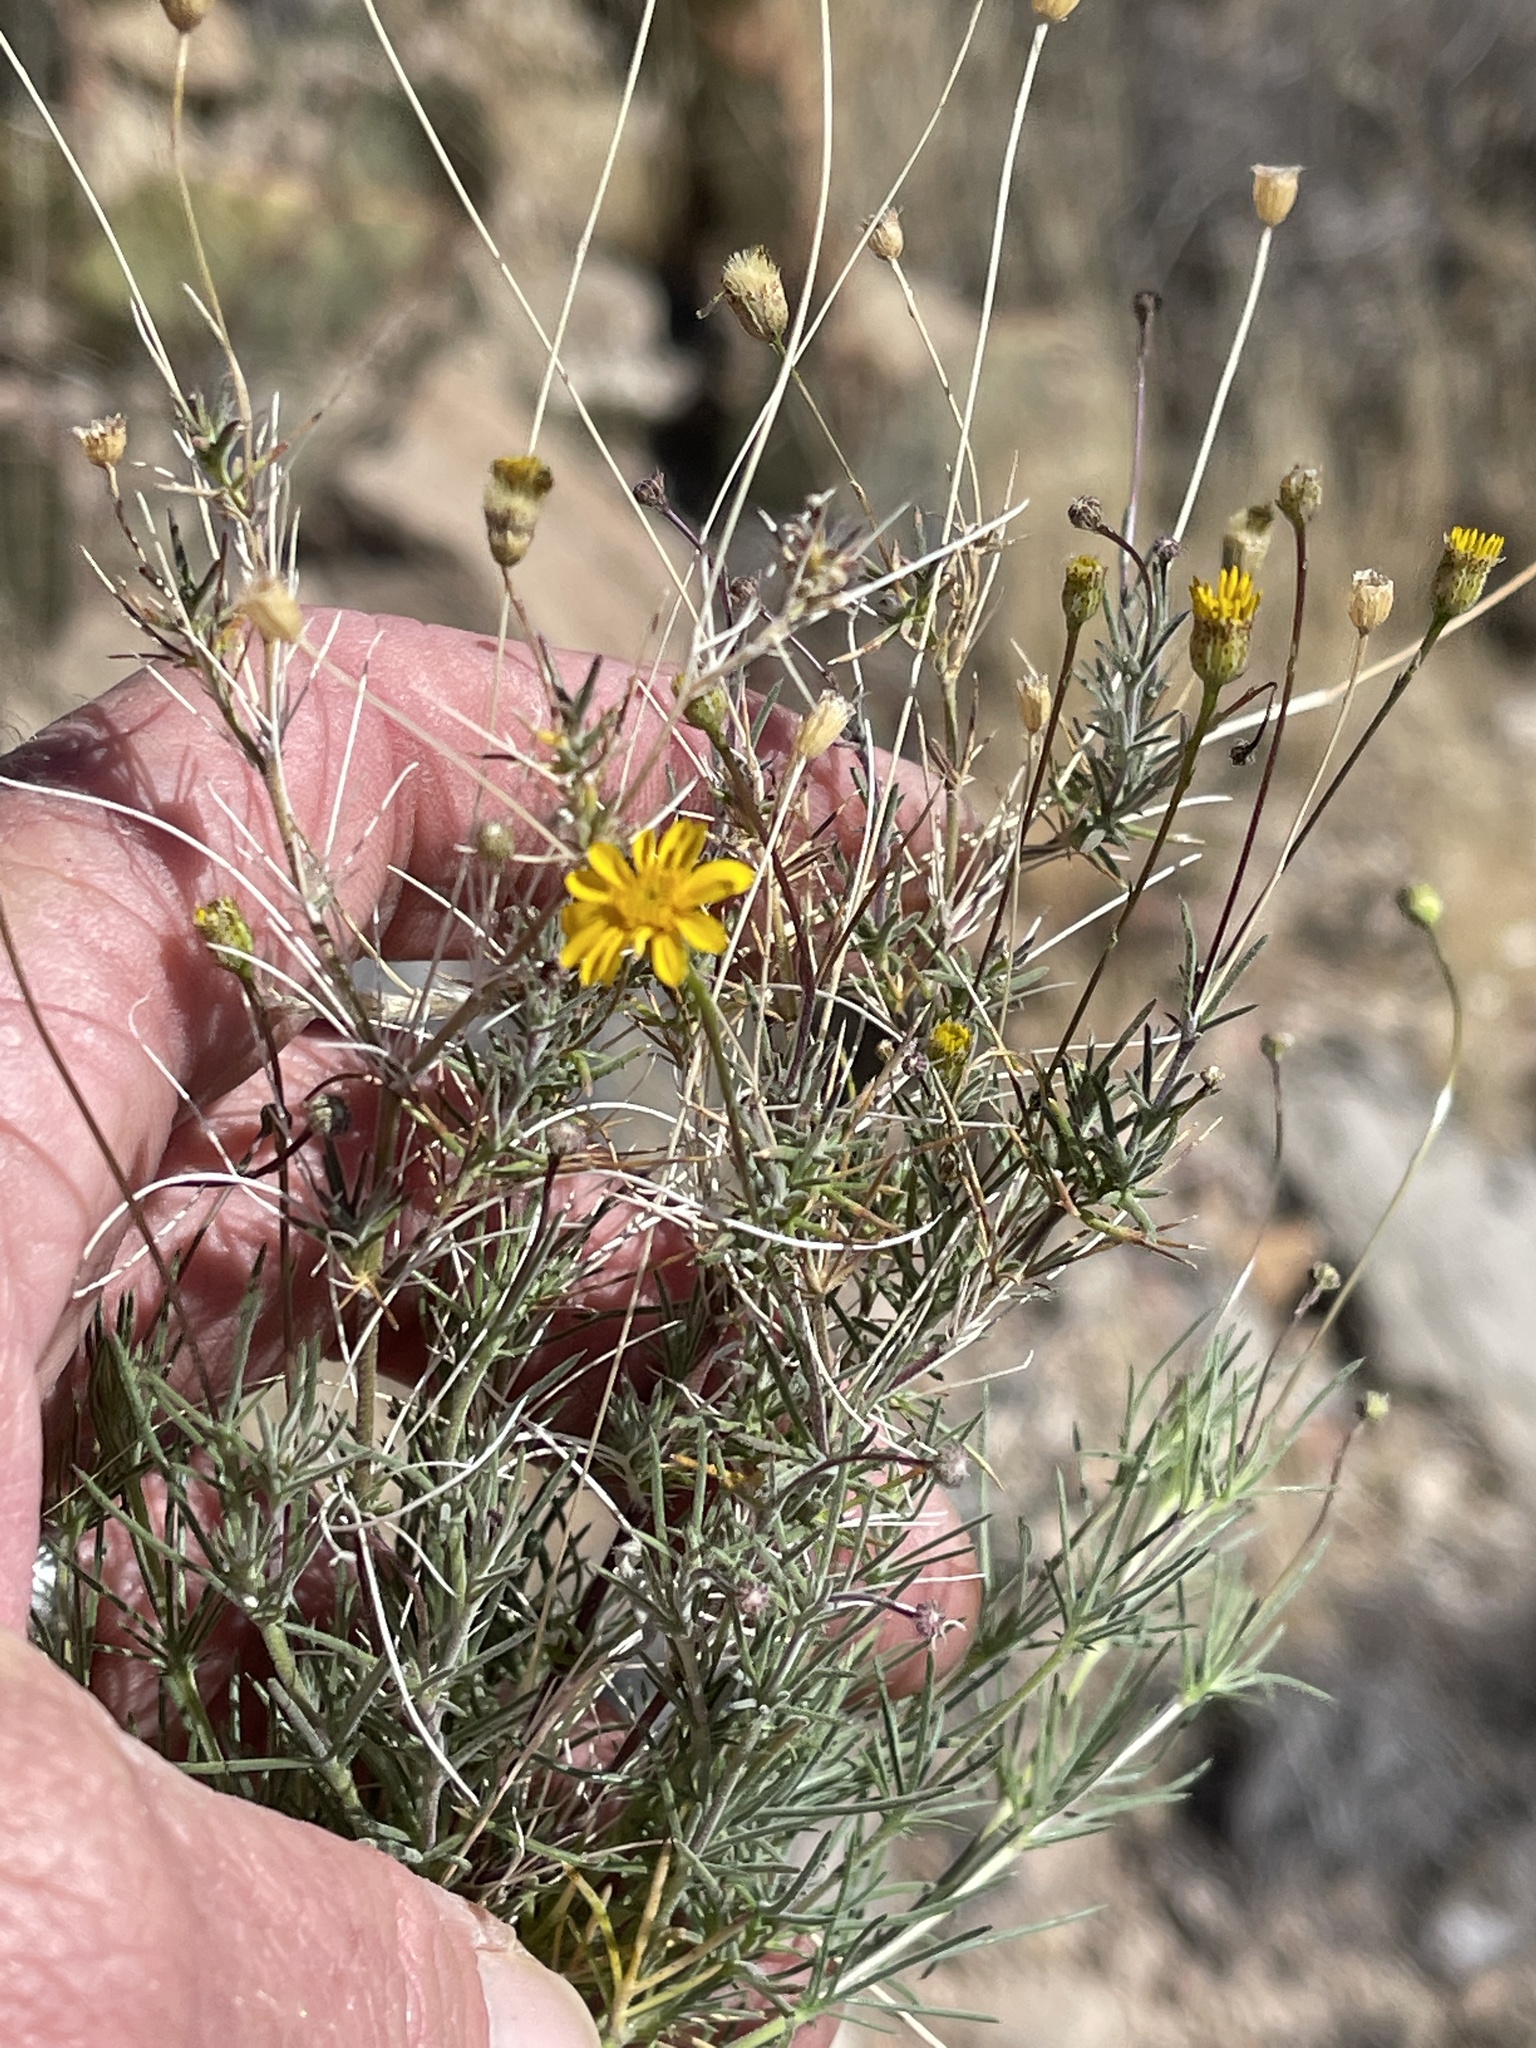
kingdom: Plantae
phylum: Tracheophyta
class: Magnoliopsida
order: Asterales
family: Asteraceae
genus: Thymophylla
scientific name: Thymophylla pentachaeta
